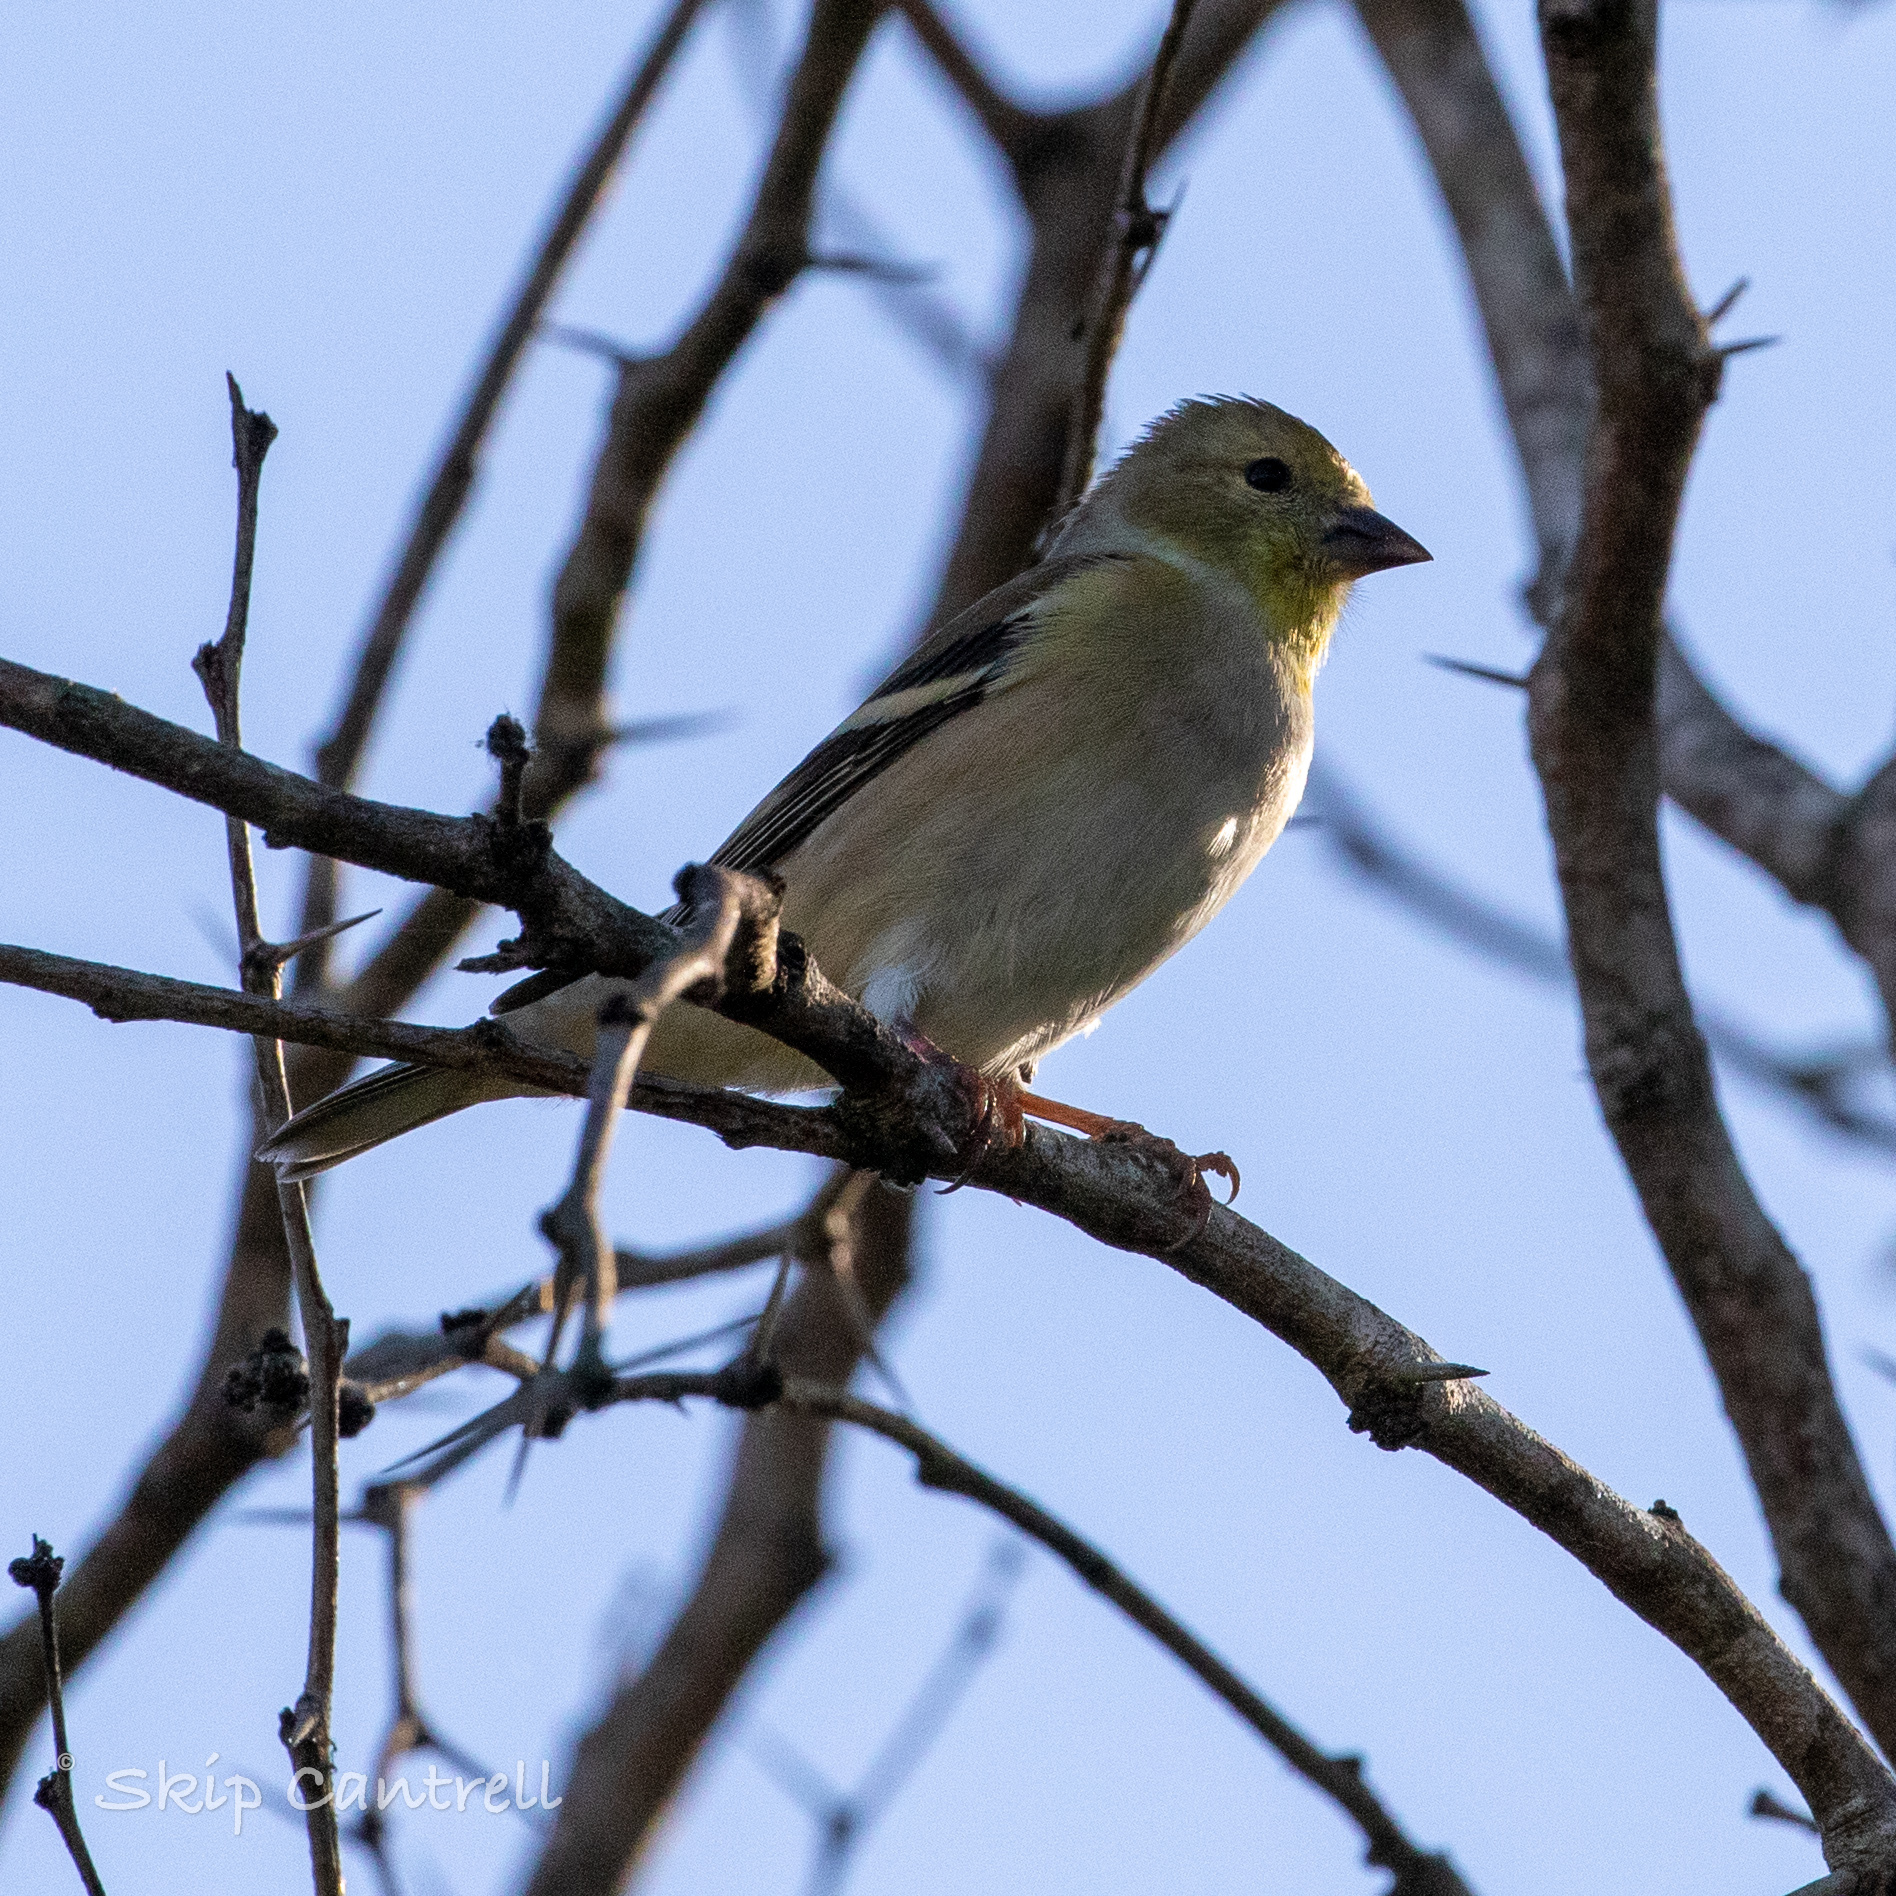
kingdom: Animalia
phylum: Chordata
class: Aves
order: Passeriformes
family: Fringillidae
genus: Spinus
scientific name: Spinus tristis
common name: American goldfinch
